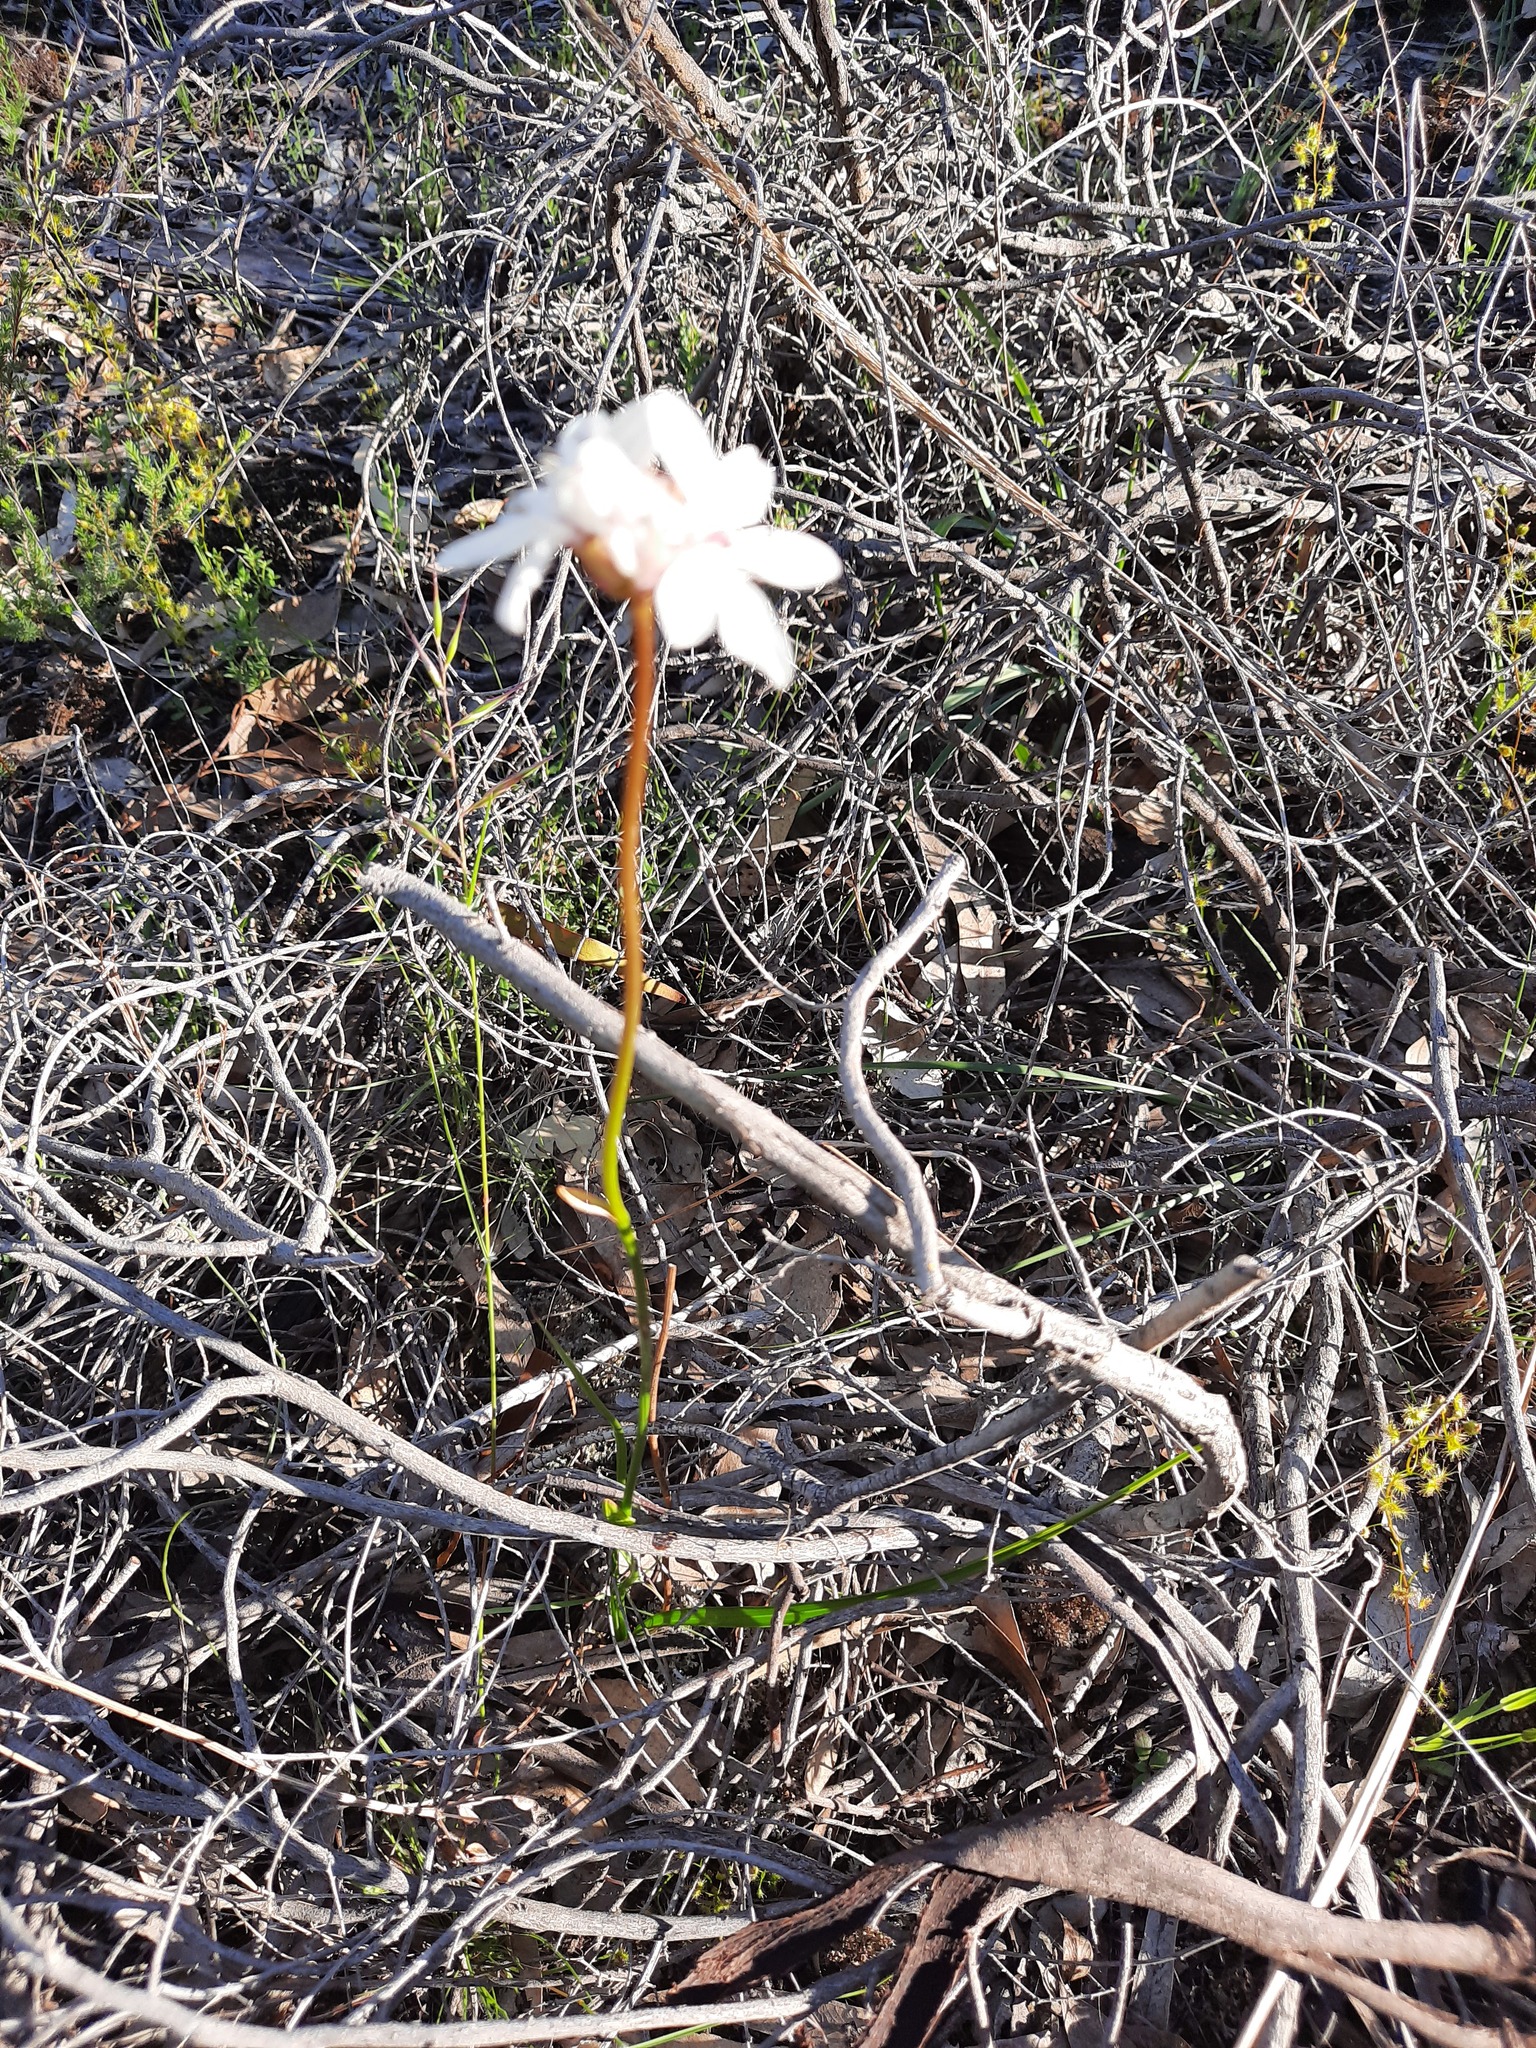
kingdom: Plantae
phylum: Tracheophyta
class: Liliopsida
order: Liliales
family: Colchicaceae
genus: Burchardia
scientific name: Burchardia umbellata
